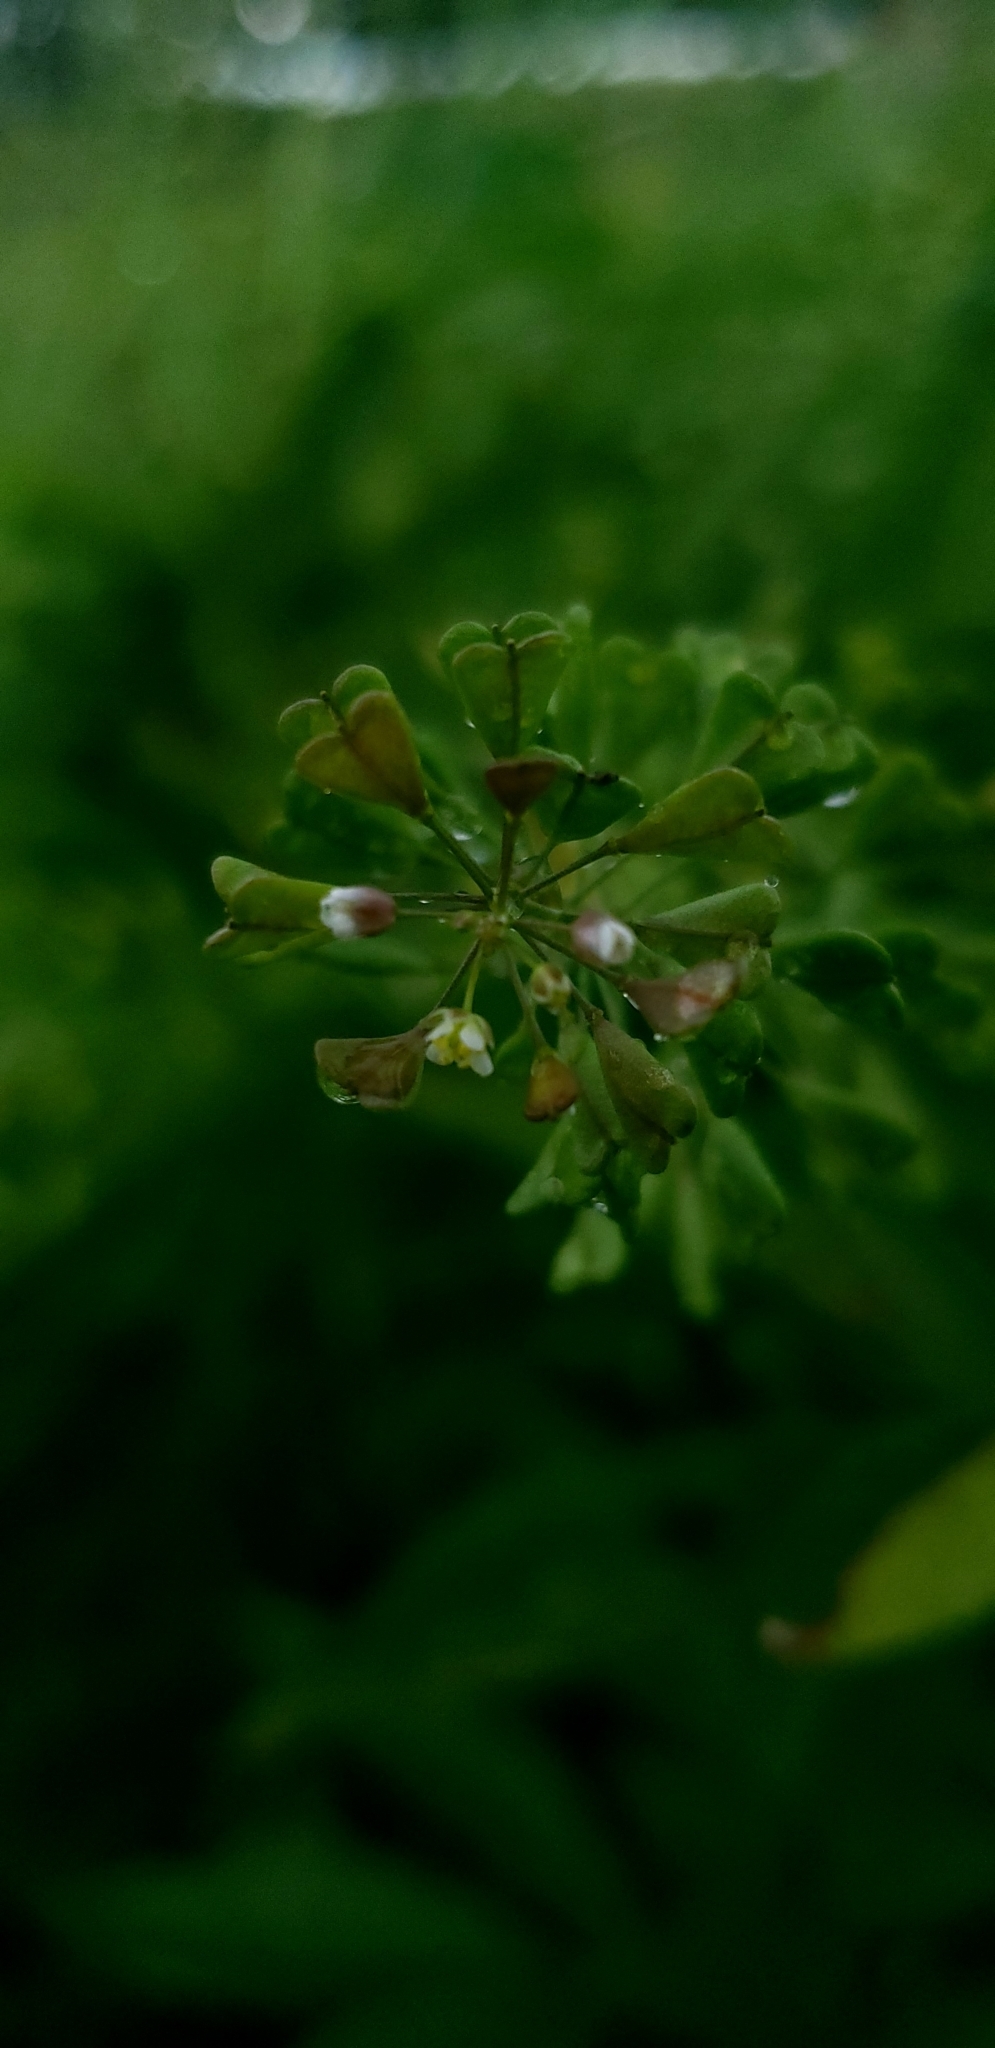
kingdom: Plantae
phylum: Tracheophyta
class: Magnoliopsida
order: Brassicales
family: Brassicaceae
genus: Capsella
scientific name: Capsella bursa-pastoris
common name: Shepherd's purse
